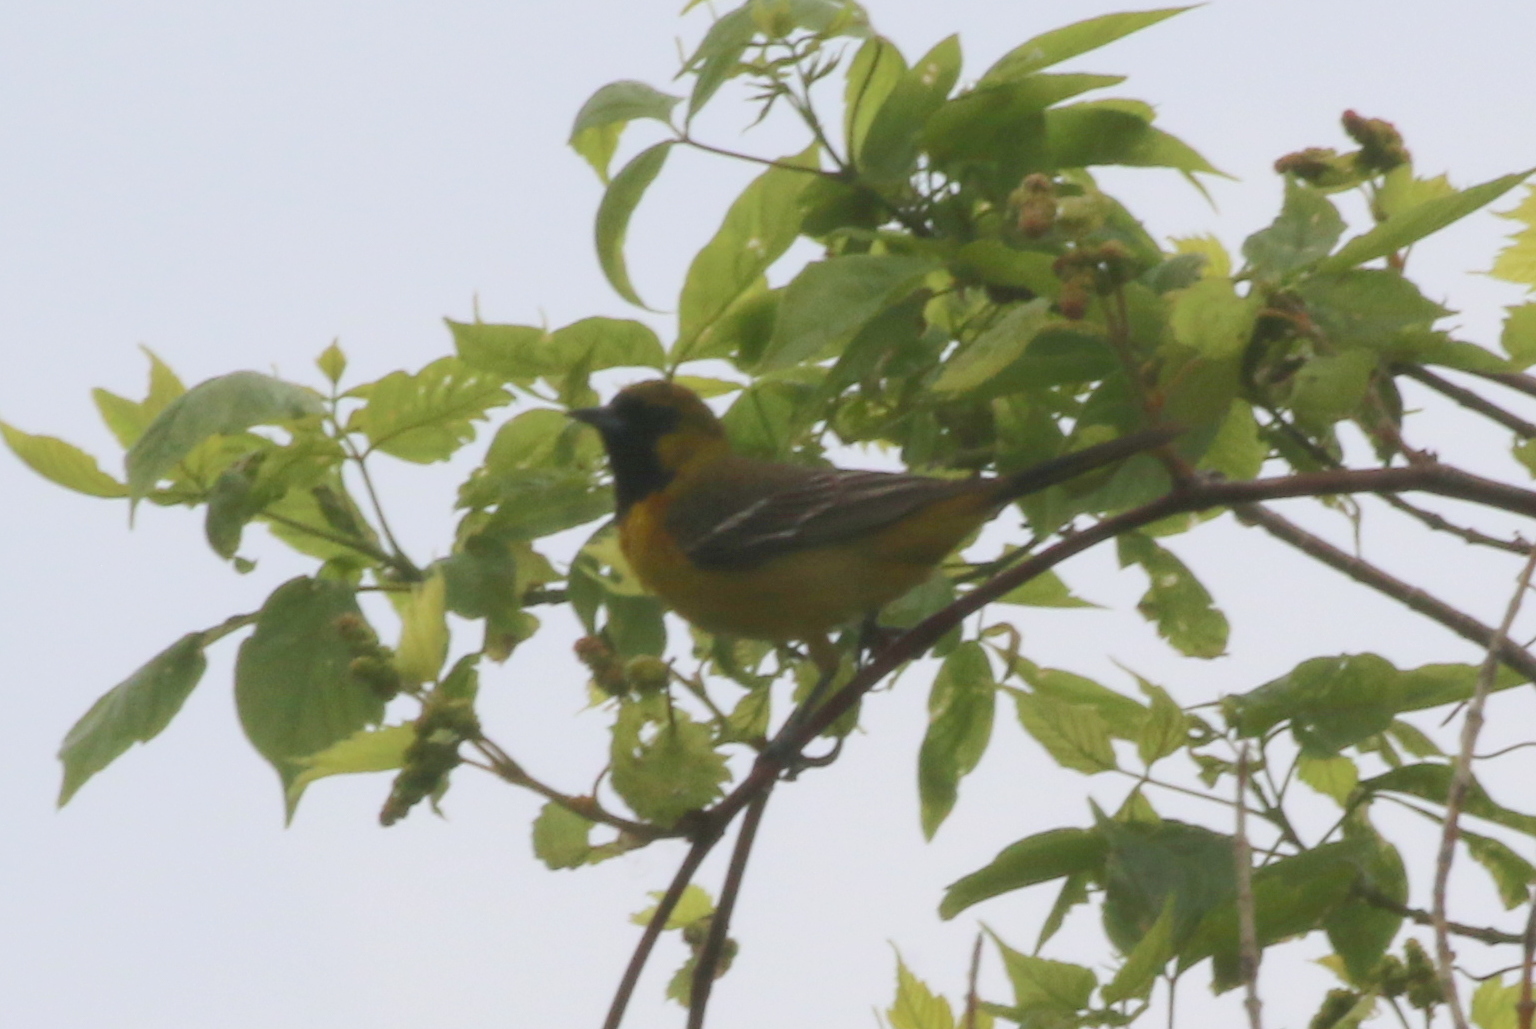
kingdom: Animalia
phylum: Chordata
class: Aves
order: Passeriformes
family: Icteridae
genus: Icterus
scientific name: Icterus spurius
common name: Orchard oriole
